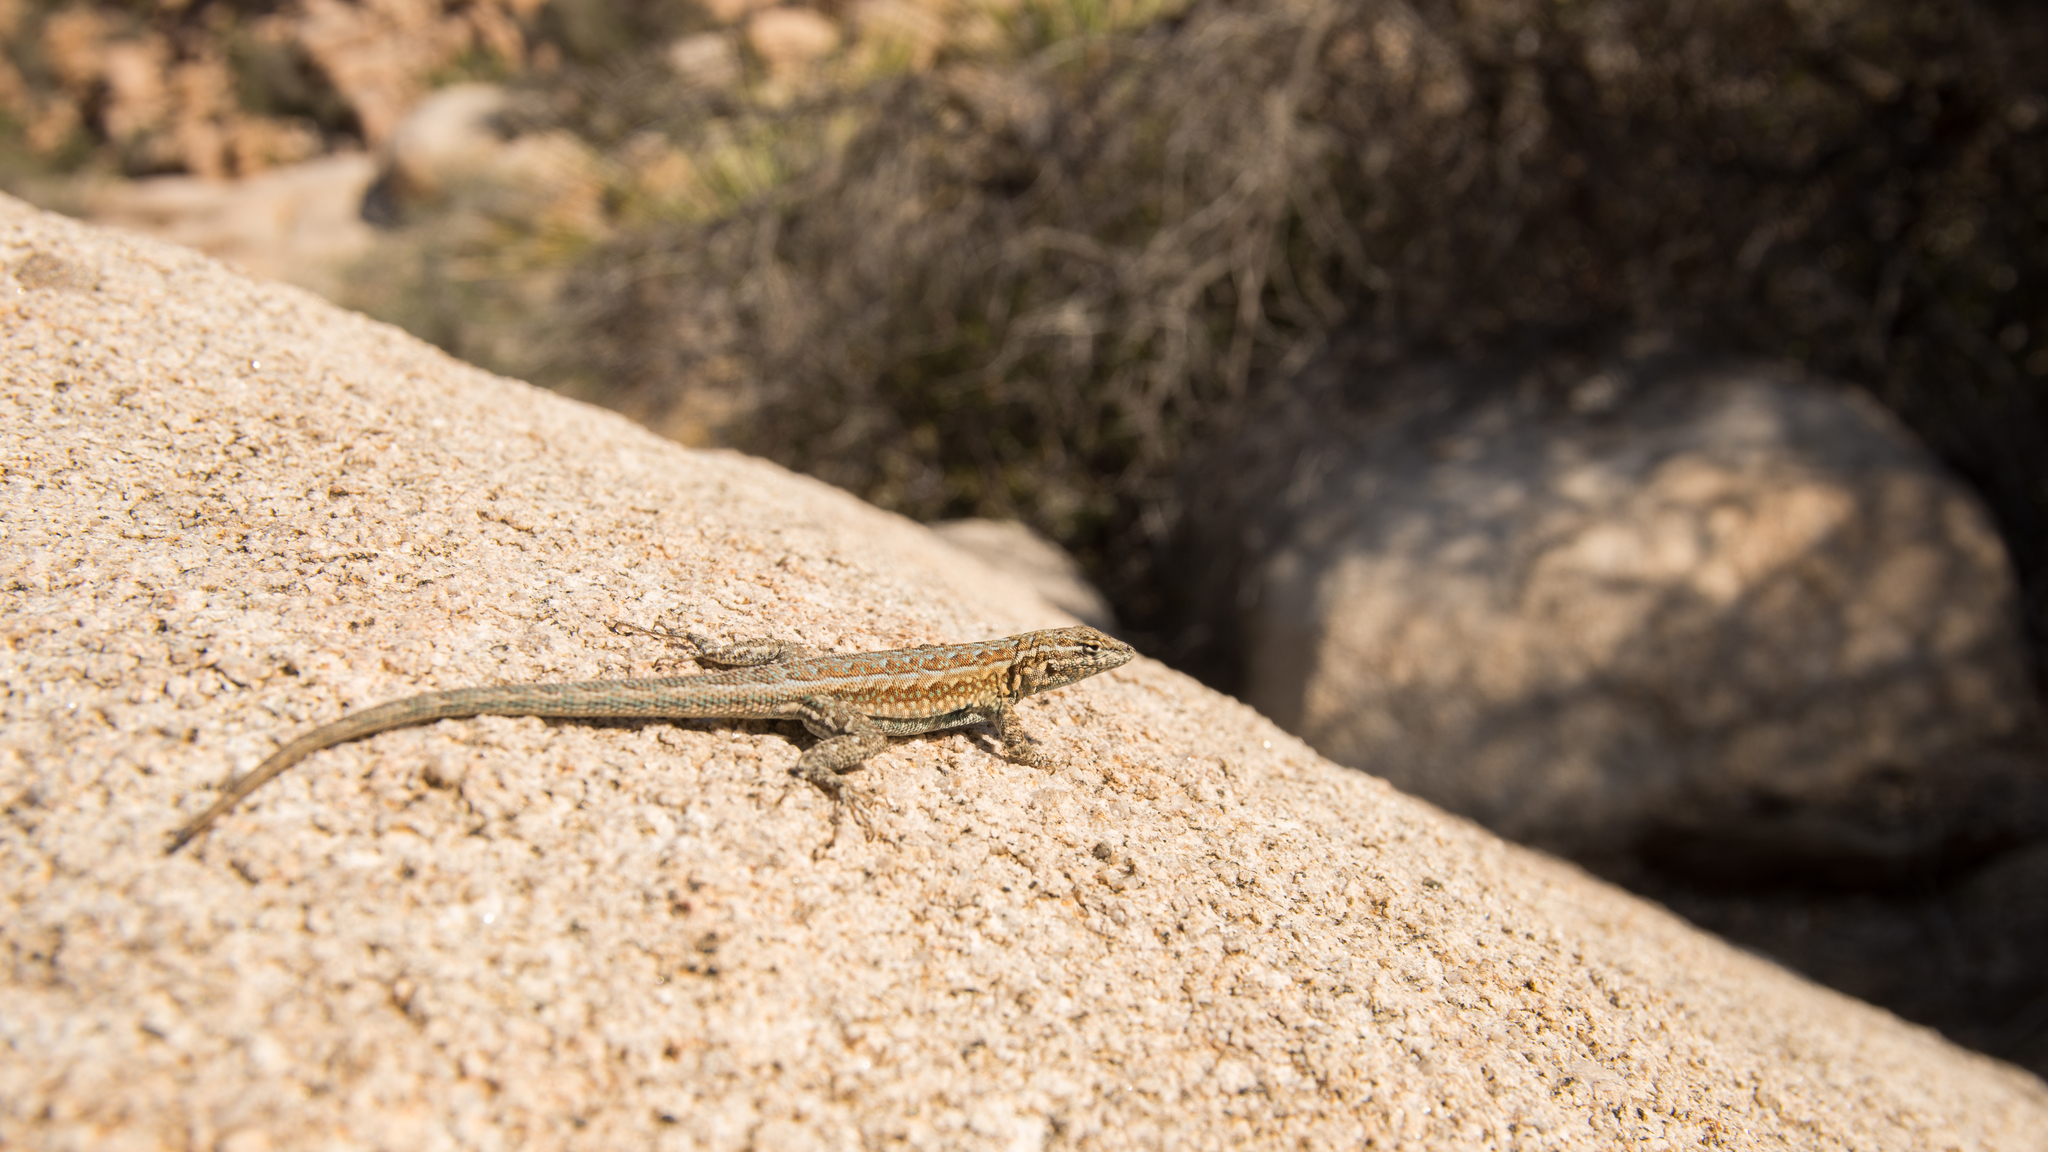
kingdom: Animalia
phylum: Chordata
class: Squamata
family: Phrynosomatidae
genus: Uta
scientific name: Uta stansburiana
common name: Side-blotched lizard
